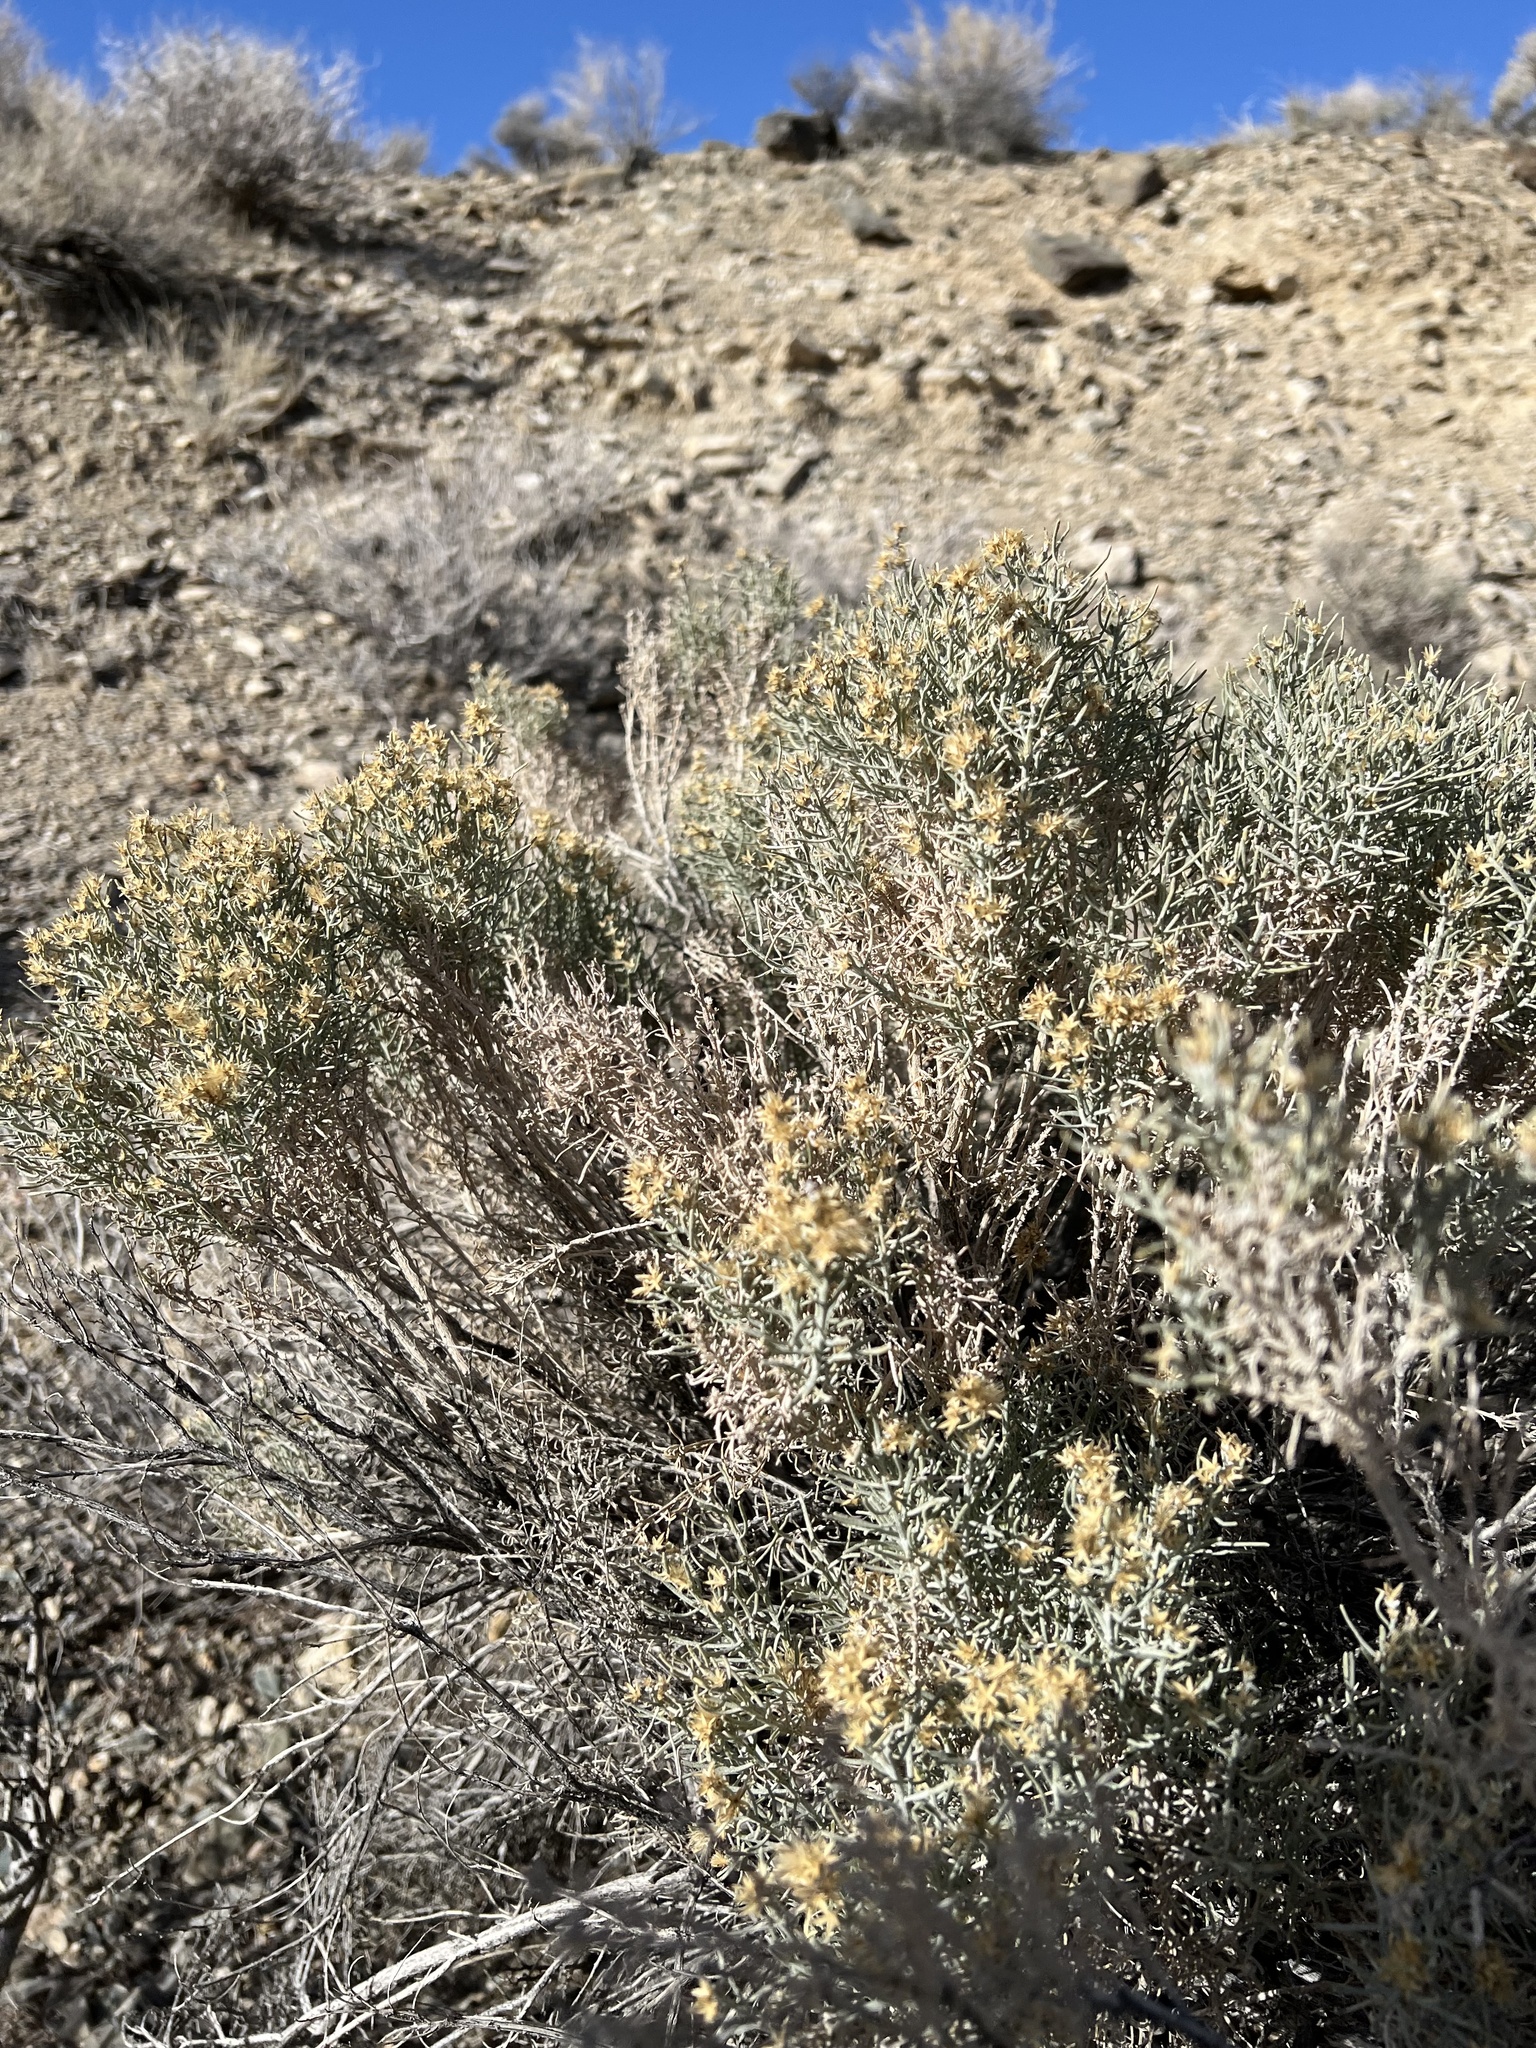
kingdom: Plantae
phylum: Tracheophyta
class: Magnoliopsida
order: Asterales
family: Asteraceae
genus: Ericameria
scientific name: Ericameria teretifolia
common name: Round-leaf rabbitbrush
